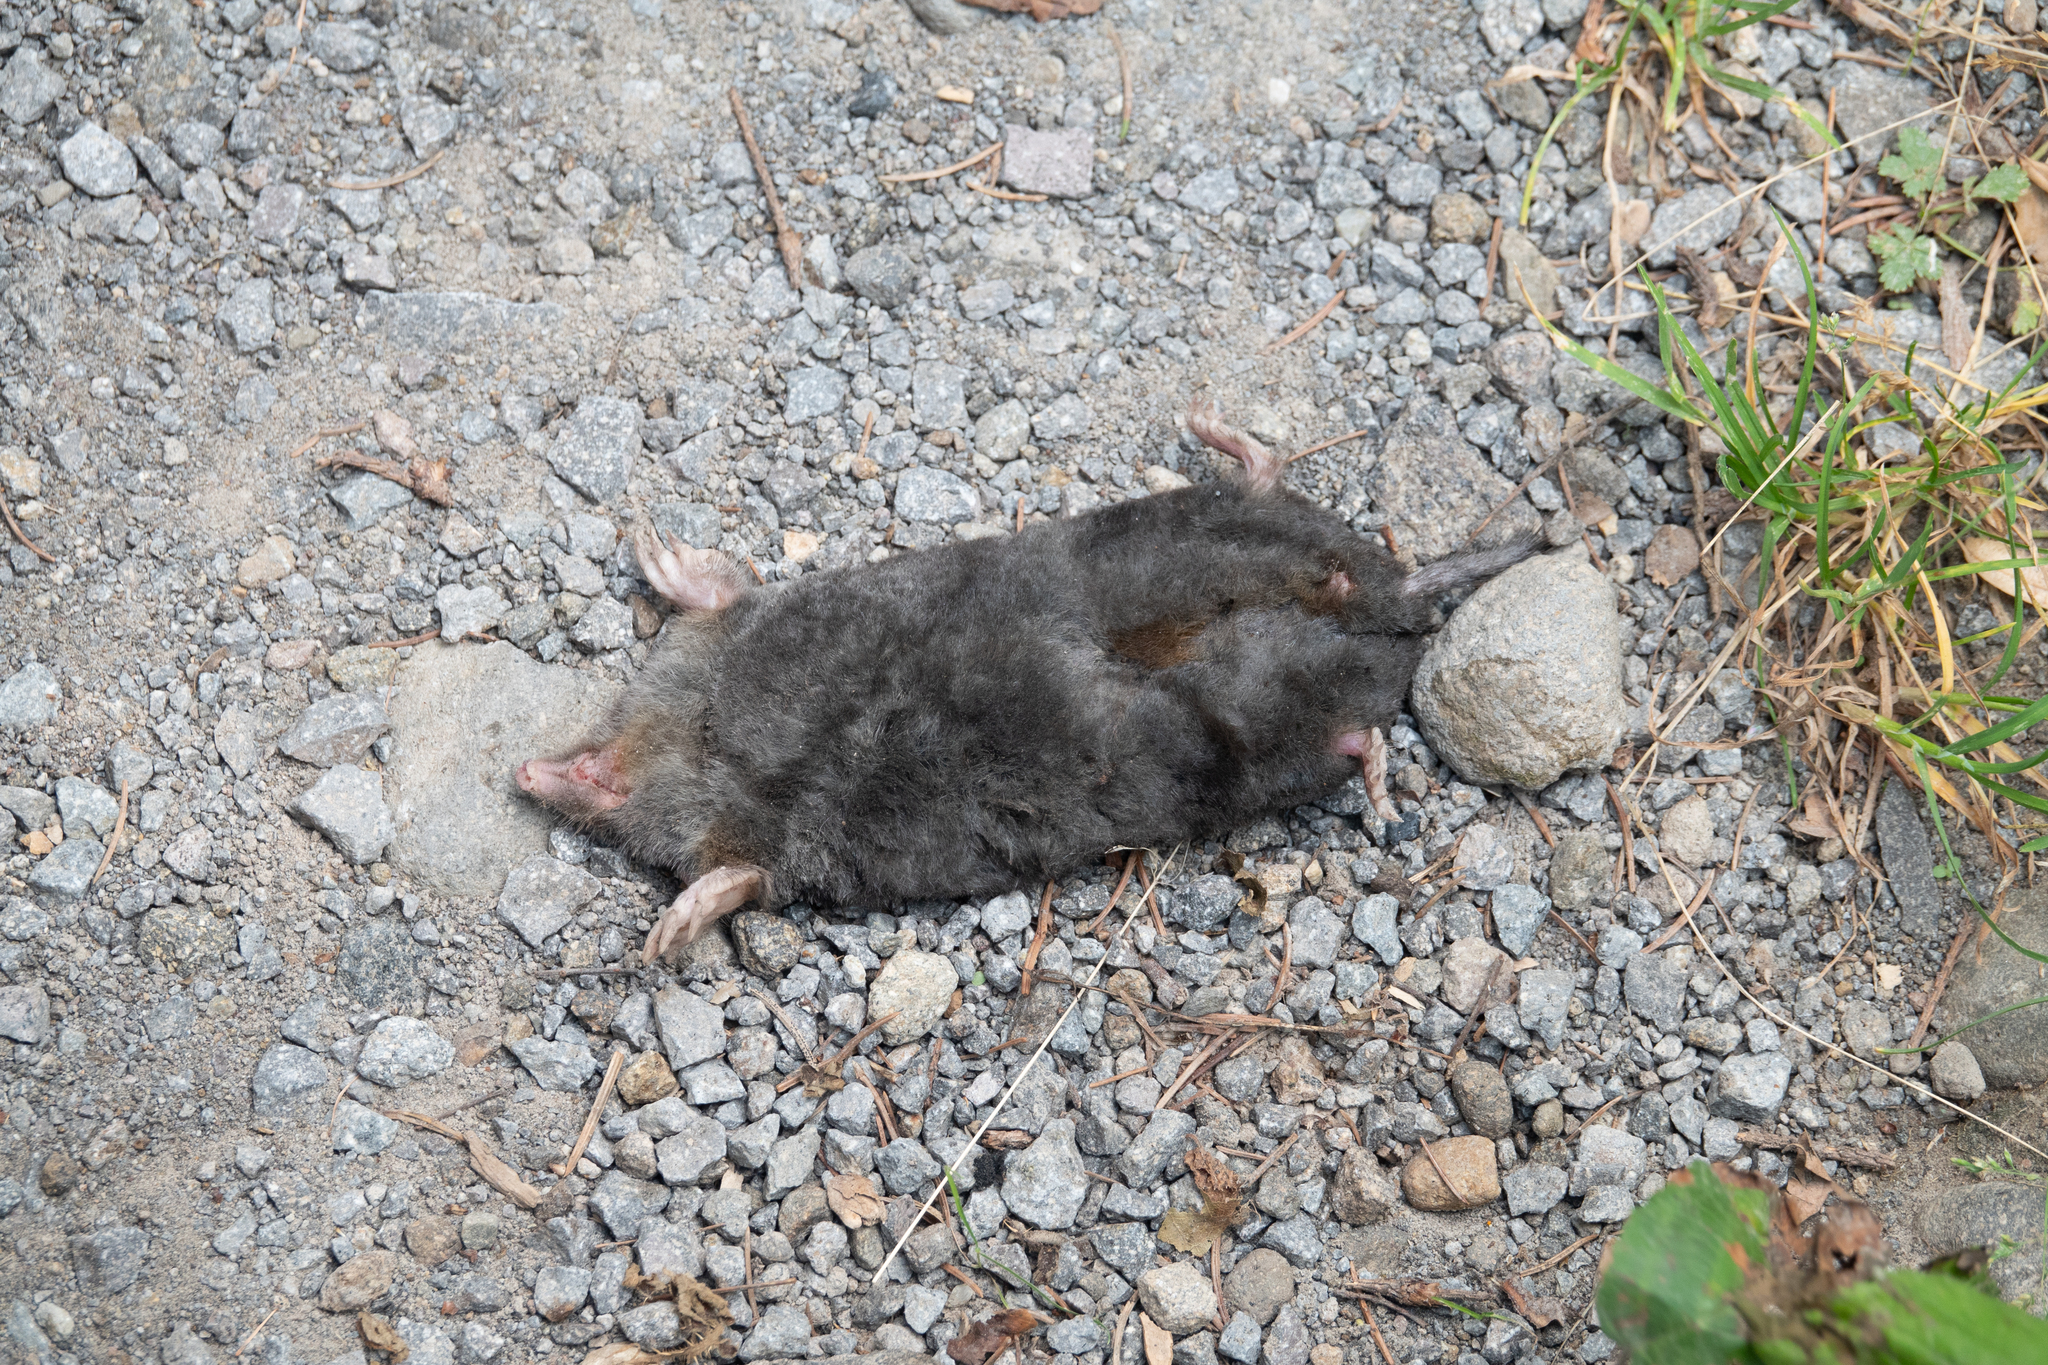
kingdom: Animalia
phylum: Chordata
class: Mammalia
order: Soricomorpha
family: Talpidae
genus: Talpa
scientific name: Talpa europaea
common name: European mole
